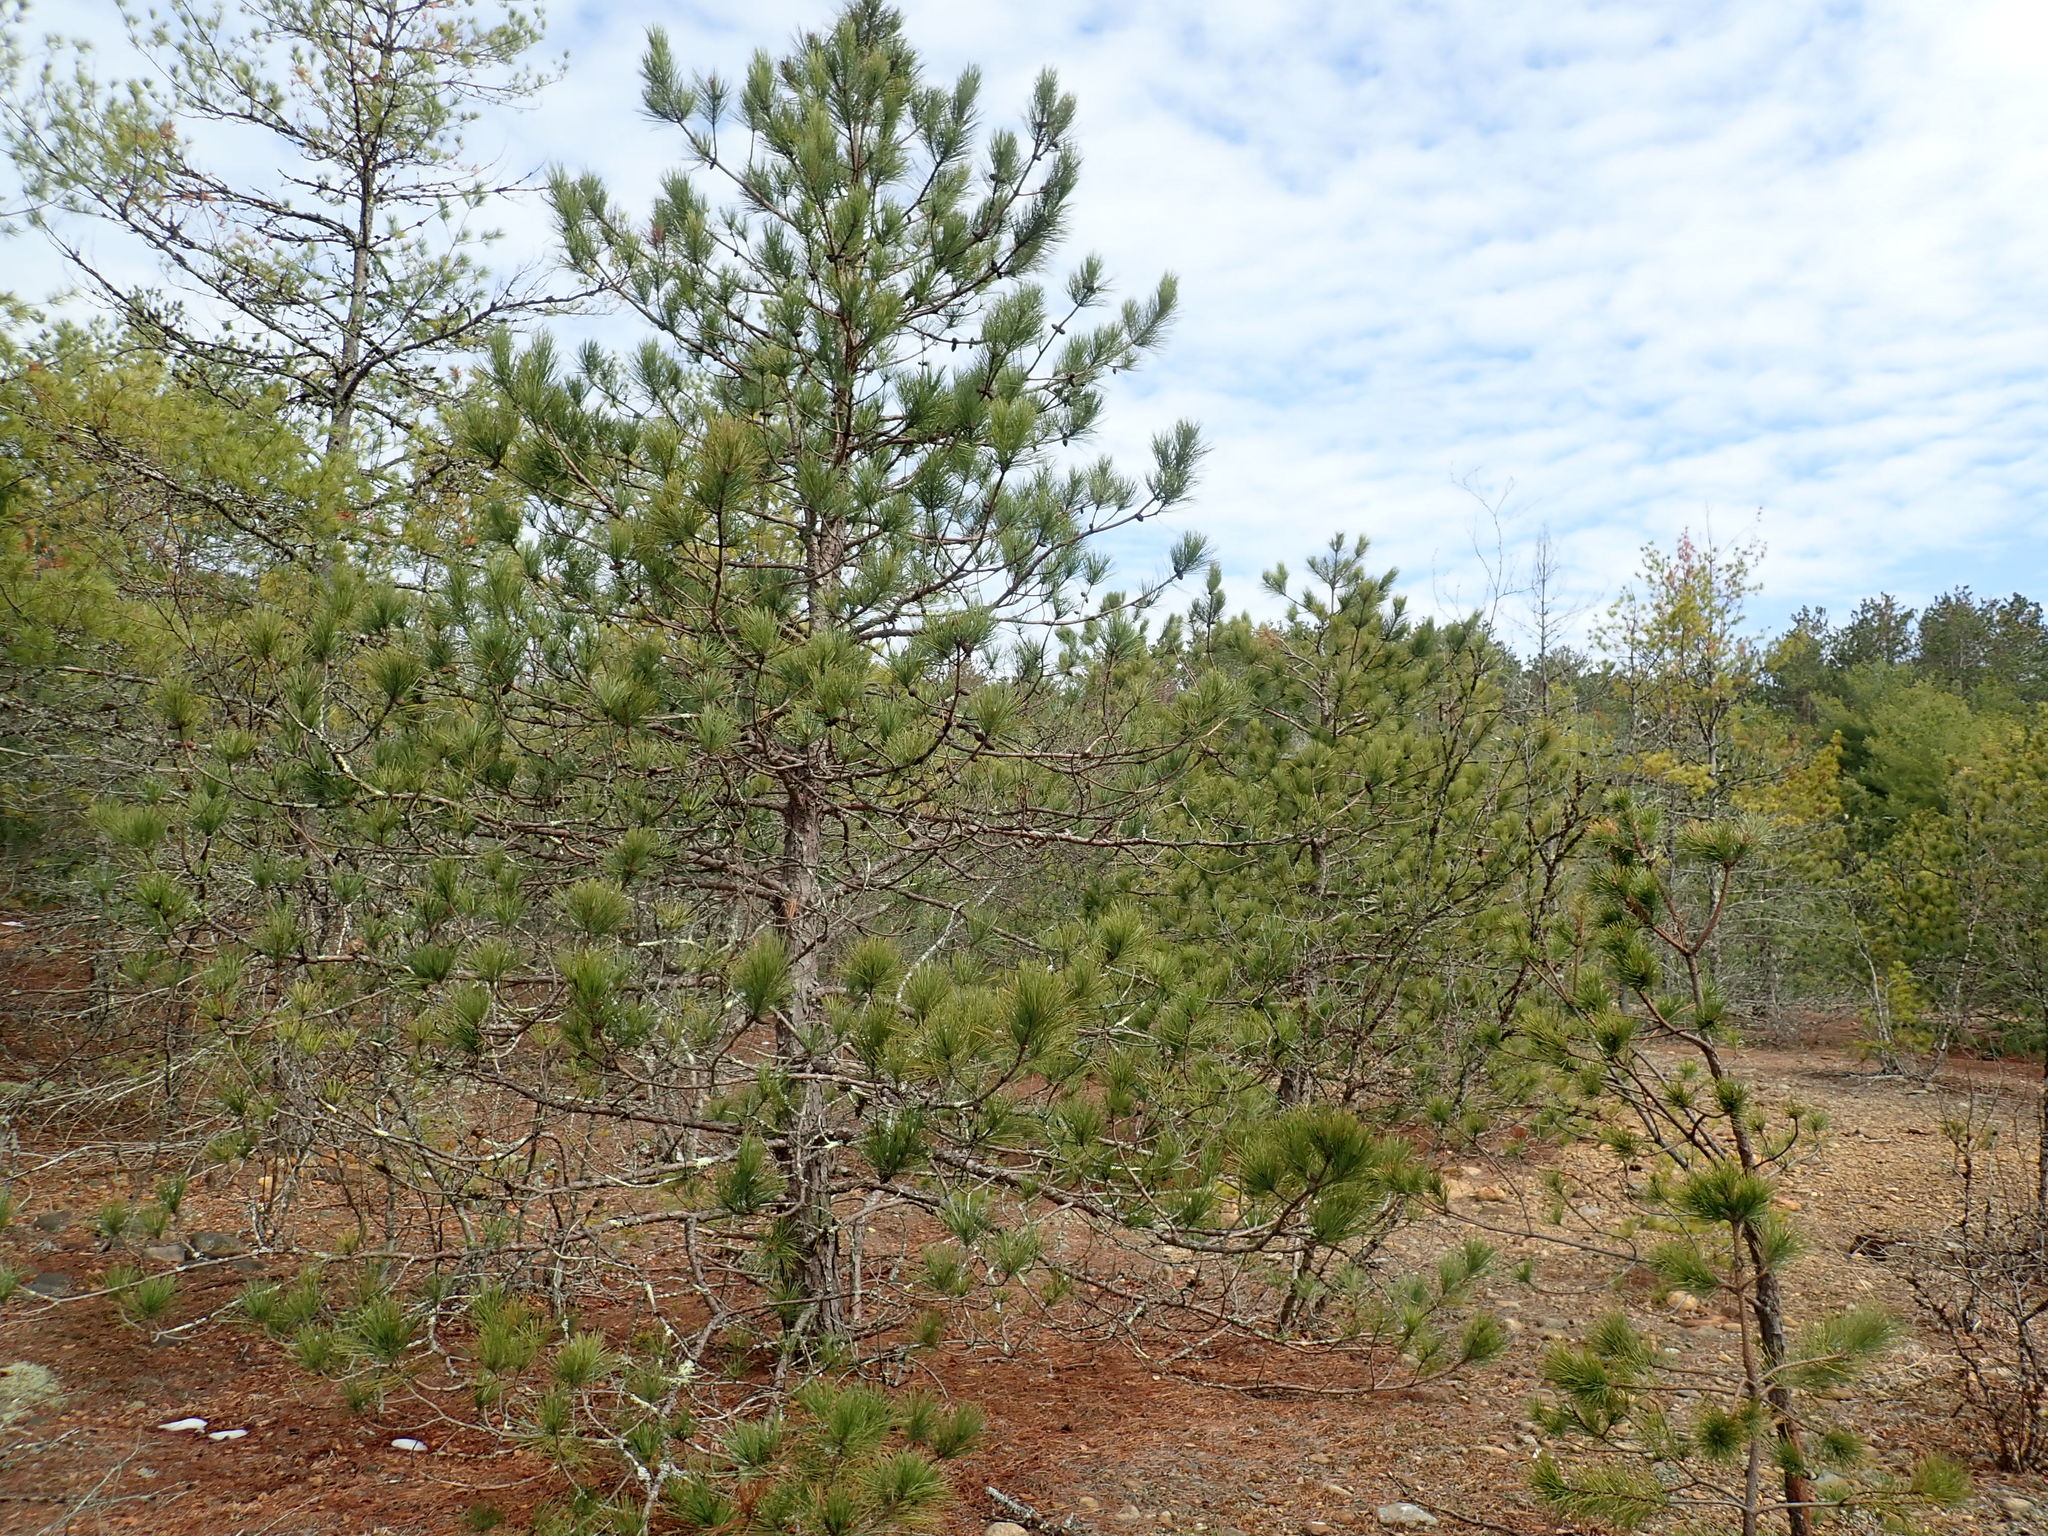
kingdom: Plantae
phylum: Tracheophyta
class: Pinopsida
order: Pinales
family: Pinaceae
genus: Pinus
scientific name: Pinus resinosa
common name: Norway pine
